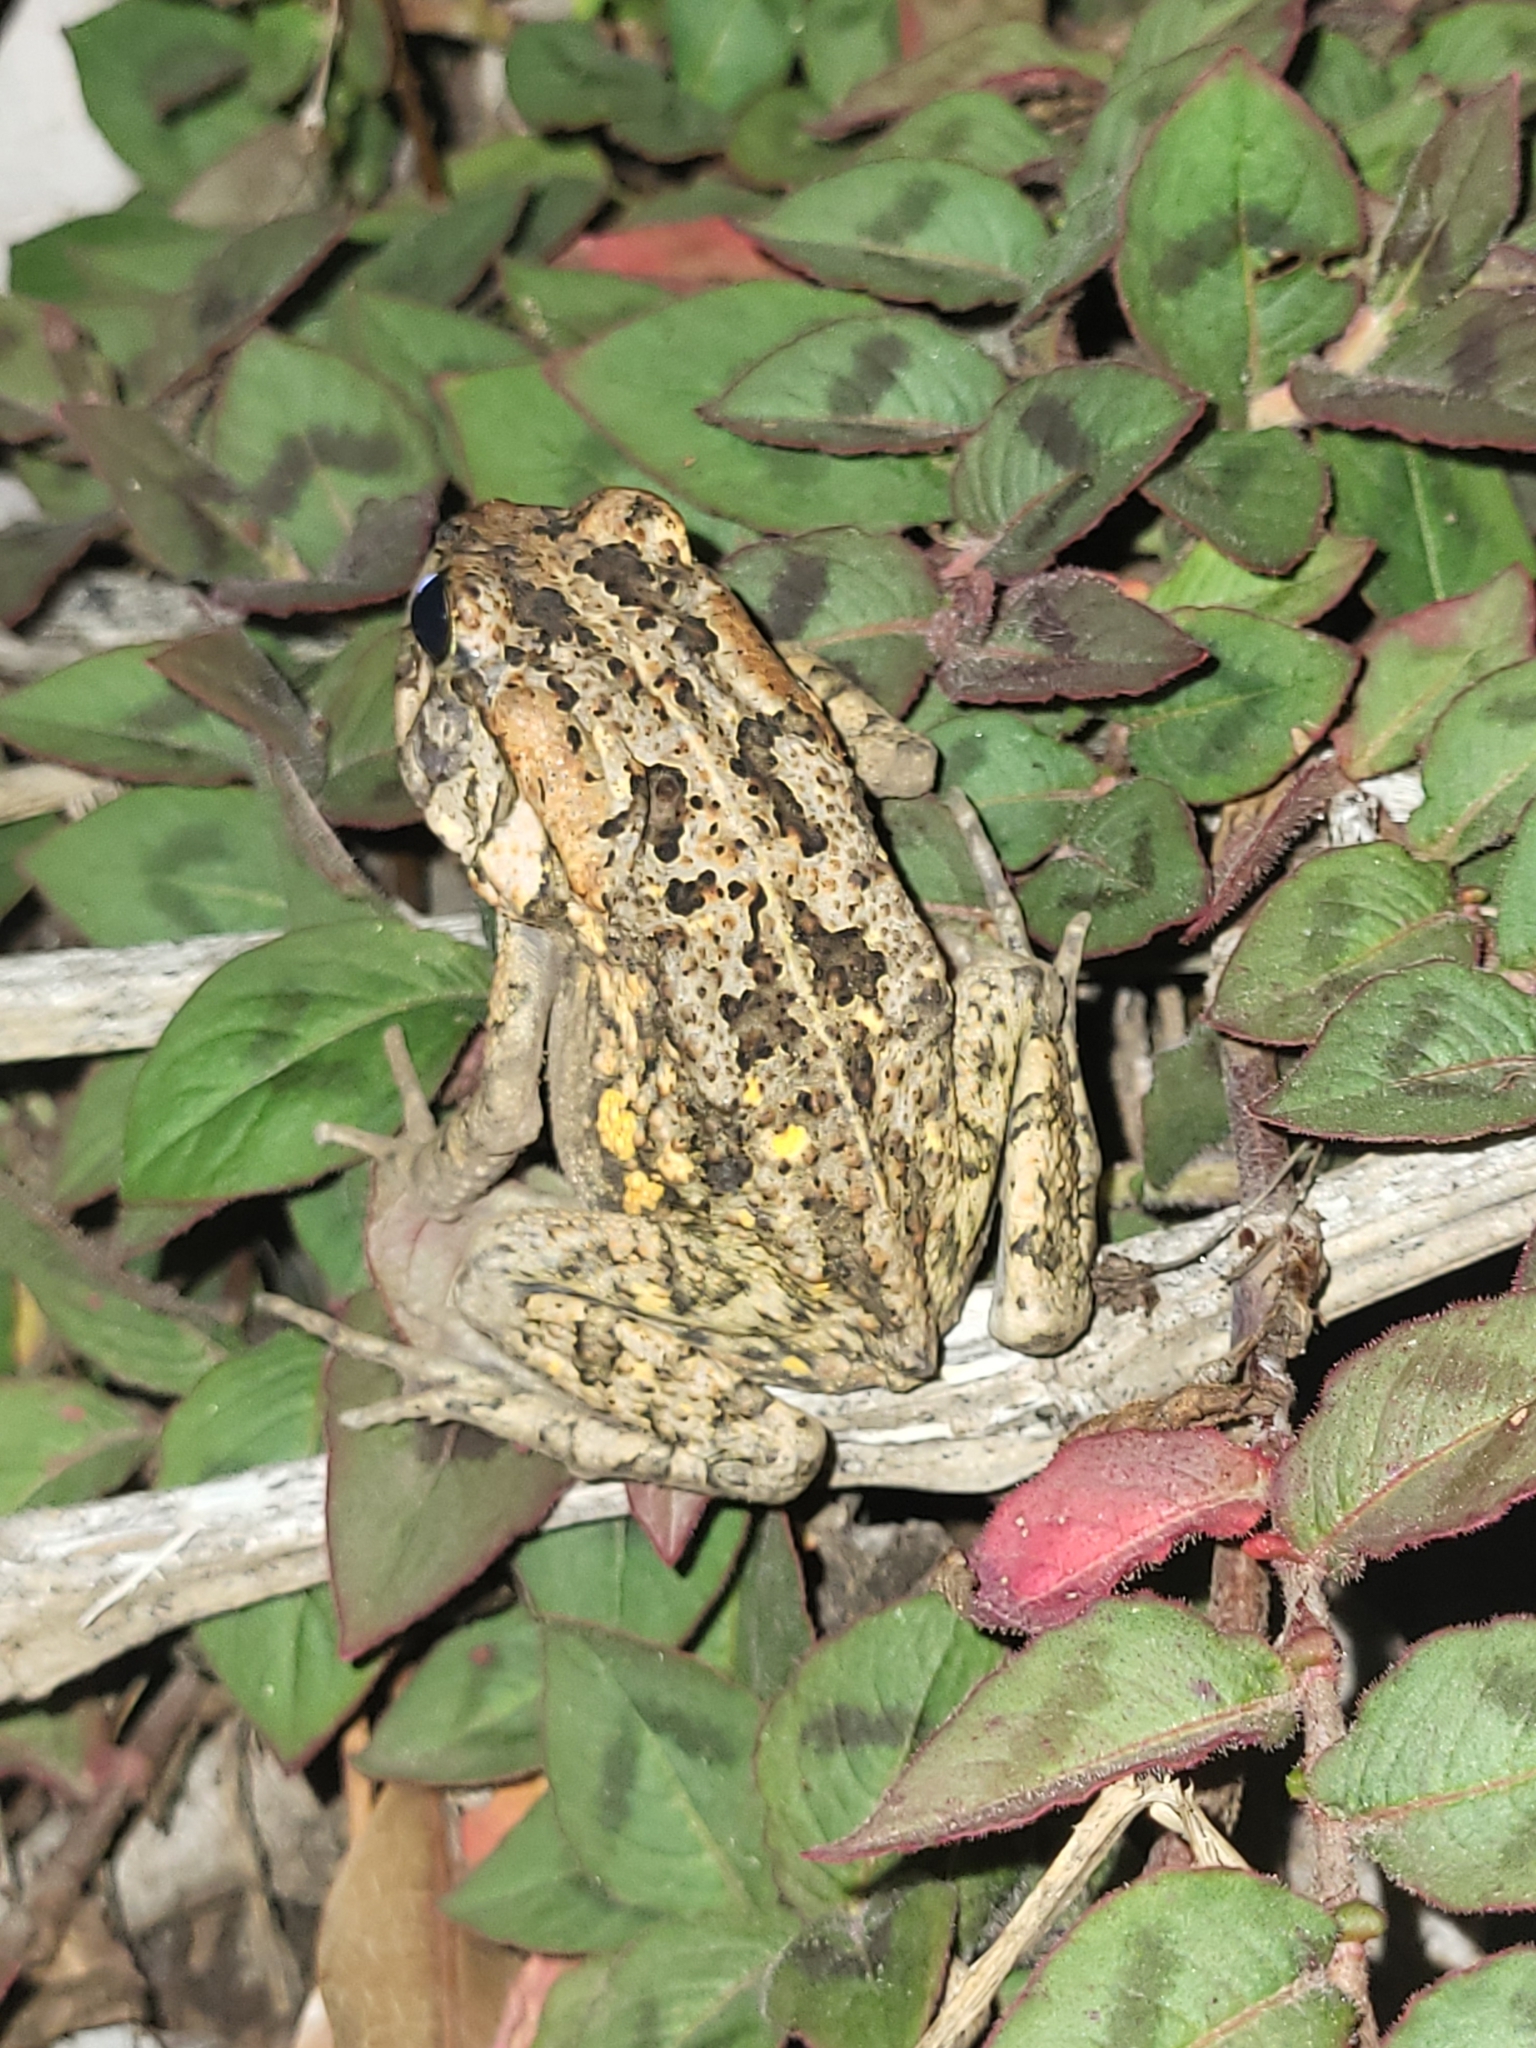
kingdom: Animalia
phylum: Chordata
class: Amphibia
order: Anura
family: Bufonidae
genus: Sclerophrys
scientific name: Sclerophrys gutturalis
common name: African common toad
